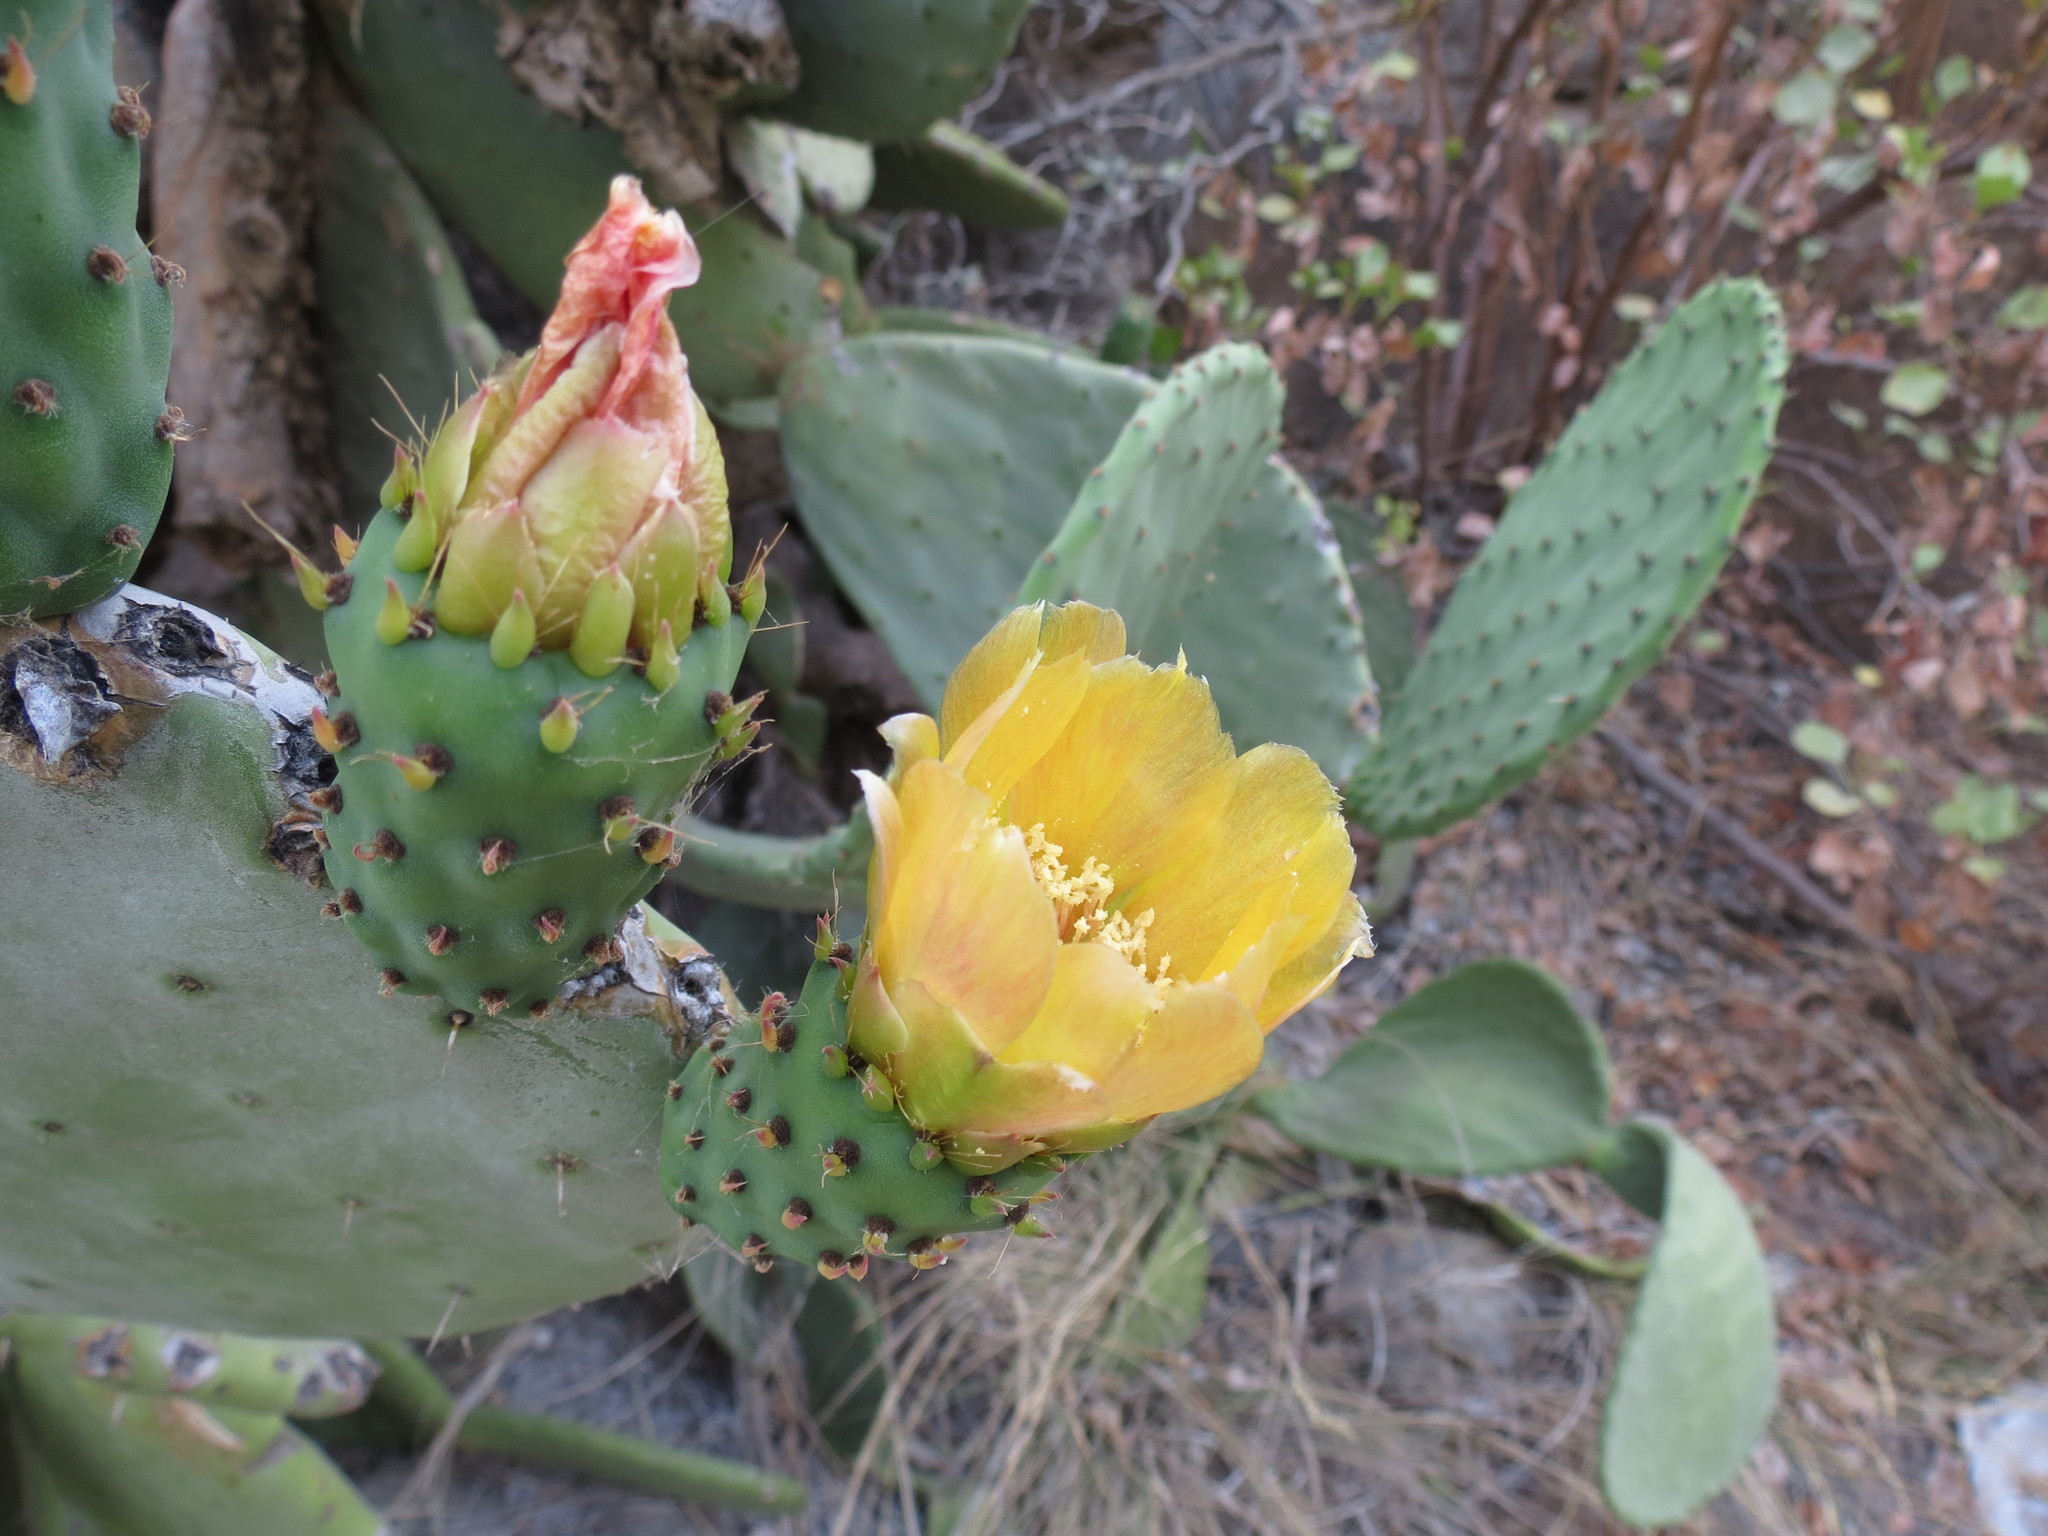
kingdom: Plantae
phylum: Tracheophyta
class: Magnoliopsida
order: Caryophyllales
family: Cactaceae
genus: Opuntia
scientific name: Opuntia ficus-indica
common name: Barbary fig
